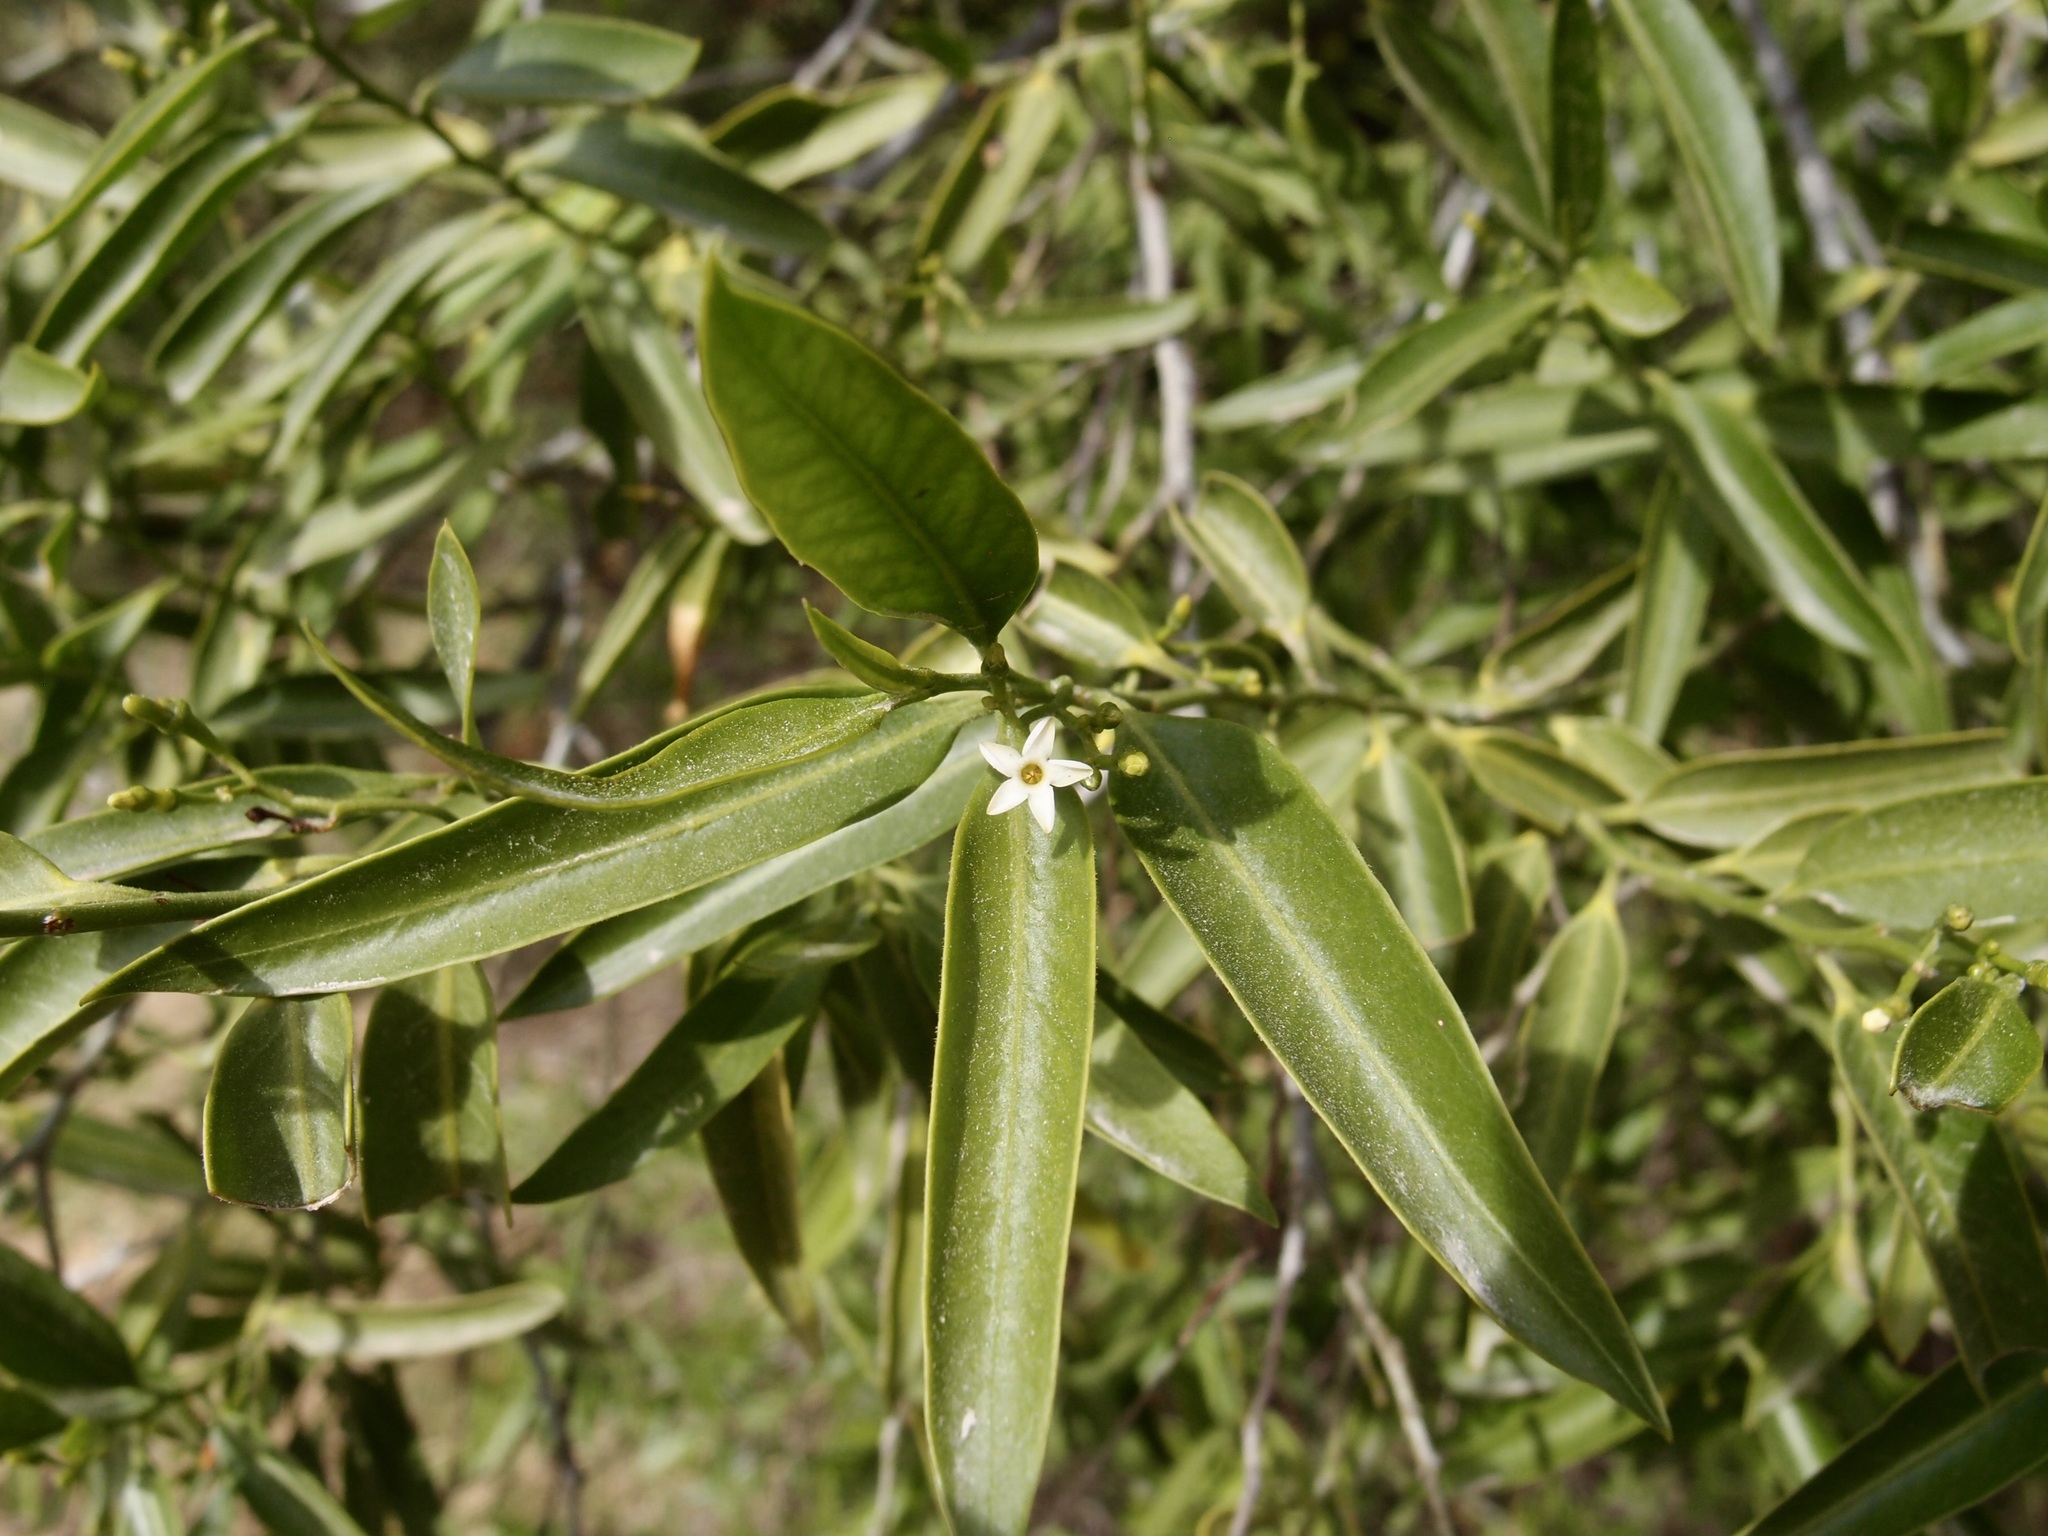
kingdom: Plantae
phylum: Tracheophyta
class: Magnoliopsida
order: Gentianales
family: Apocynaceae
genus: Vallesia
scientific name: Vallesia glabra
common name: Pearlberry
